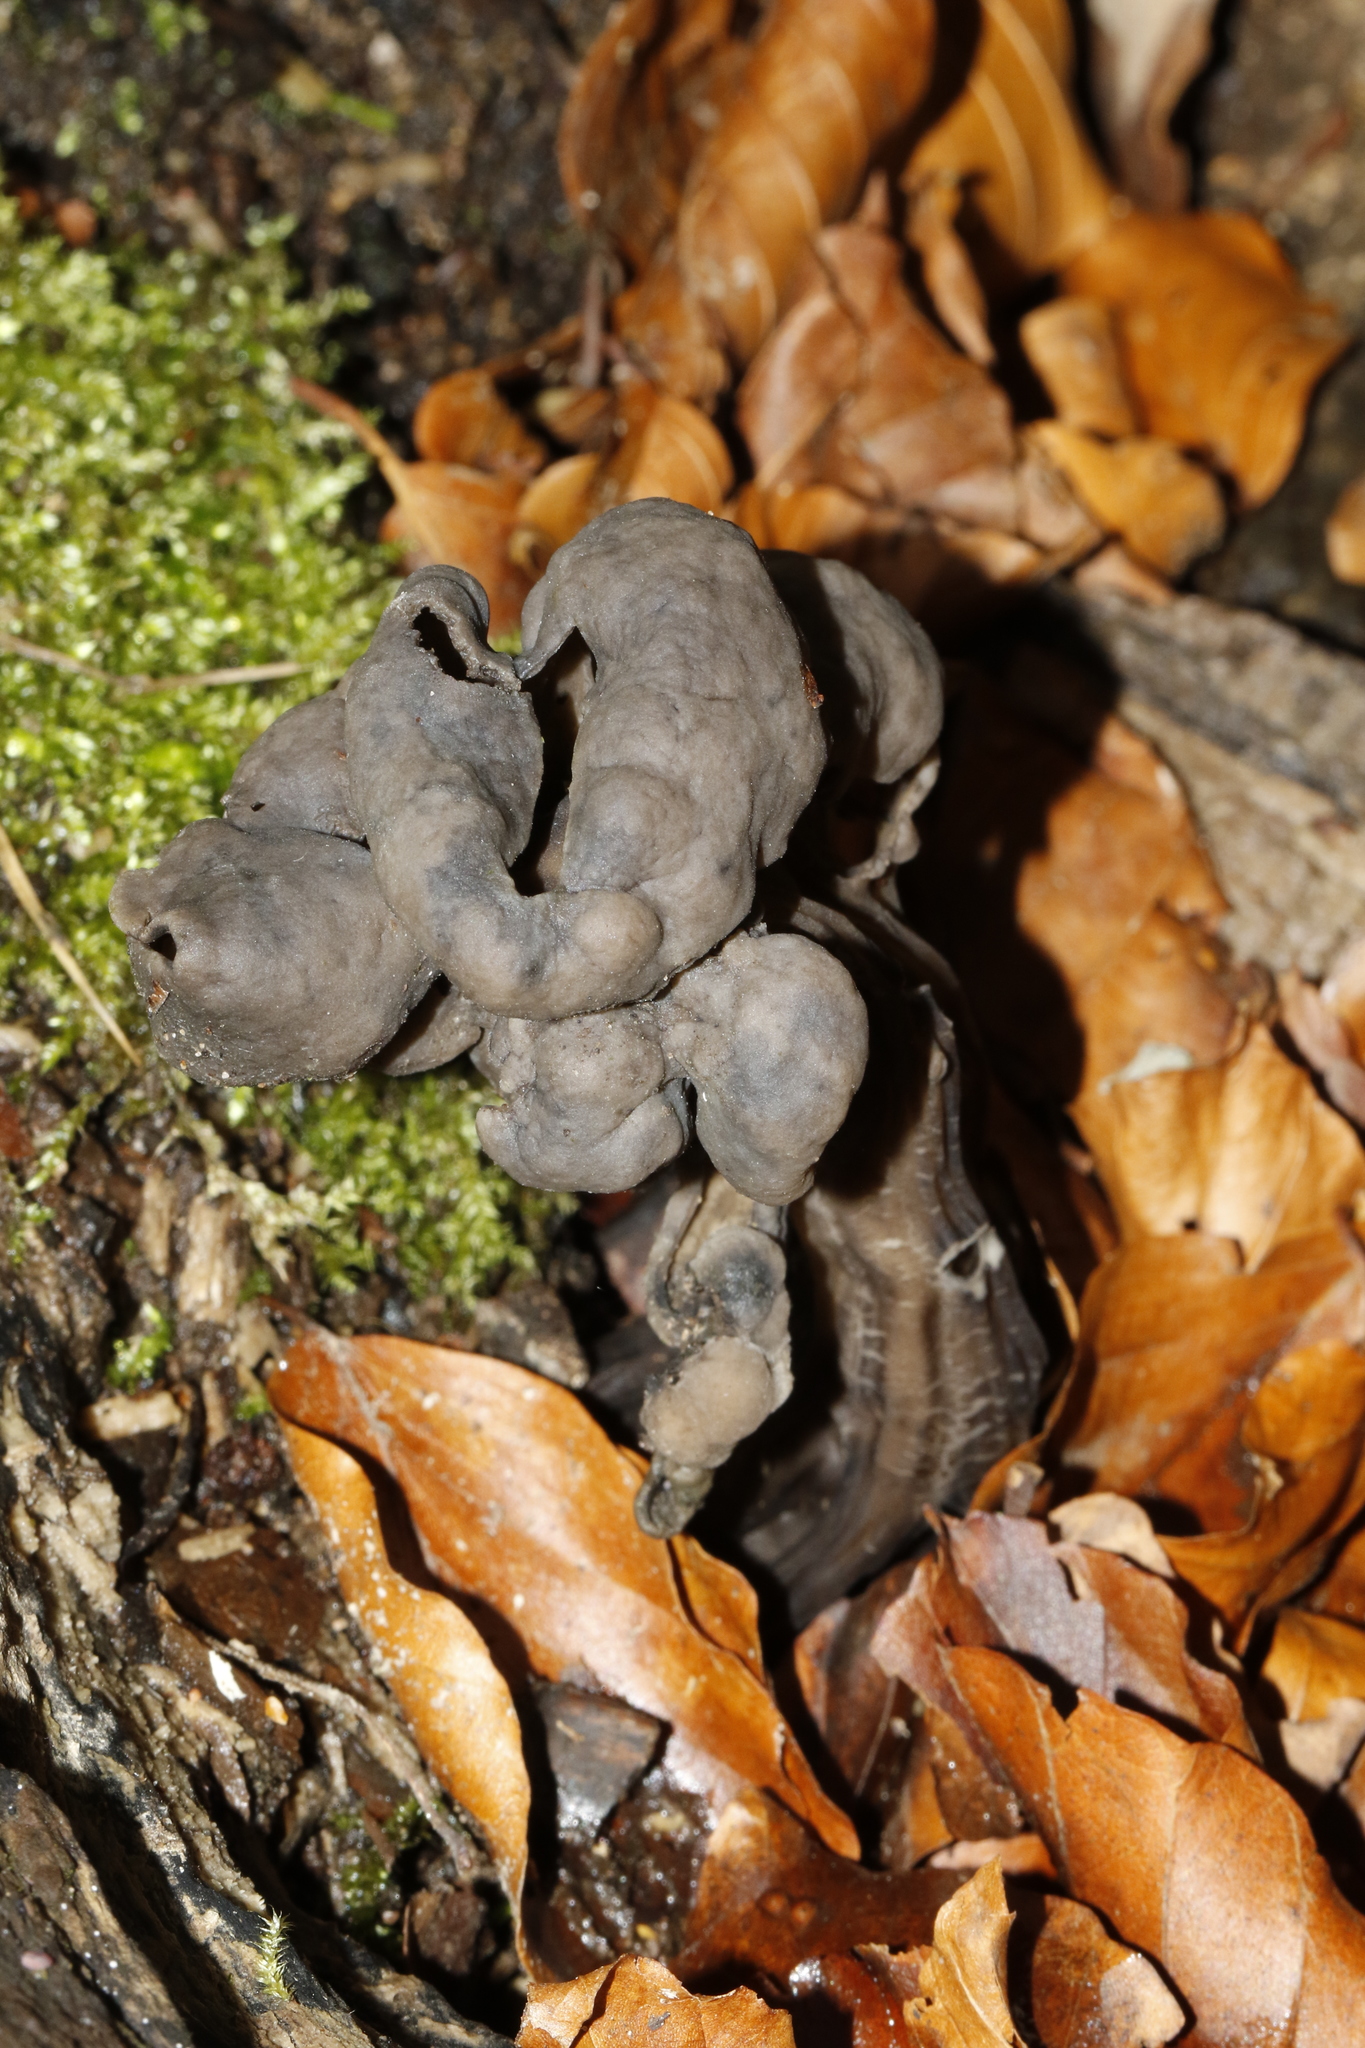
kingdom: Fungi
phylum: Ascomycota
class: Pezizomycetes
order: Pezizales
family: Helvellaceae
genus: Helvella
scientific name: Helvella lacunosa
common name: Elfin saddle
